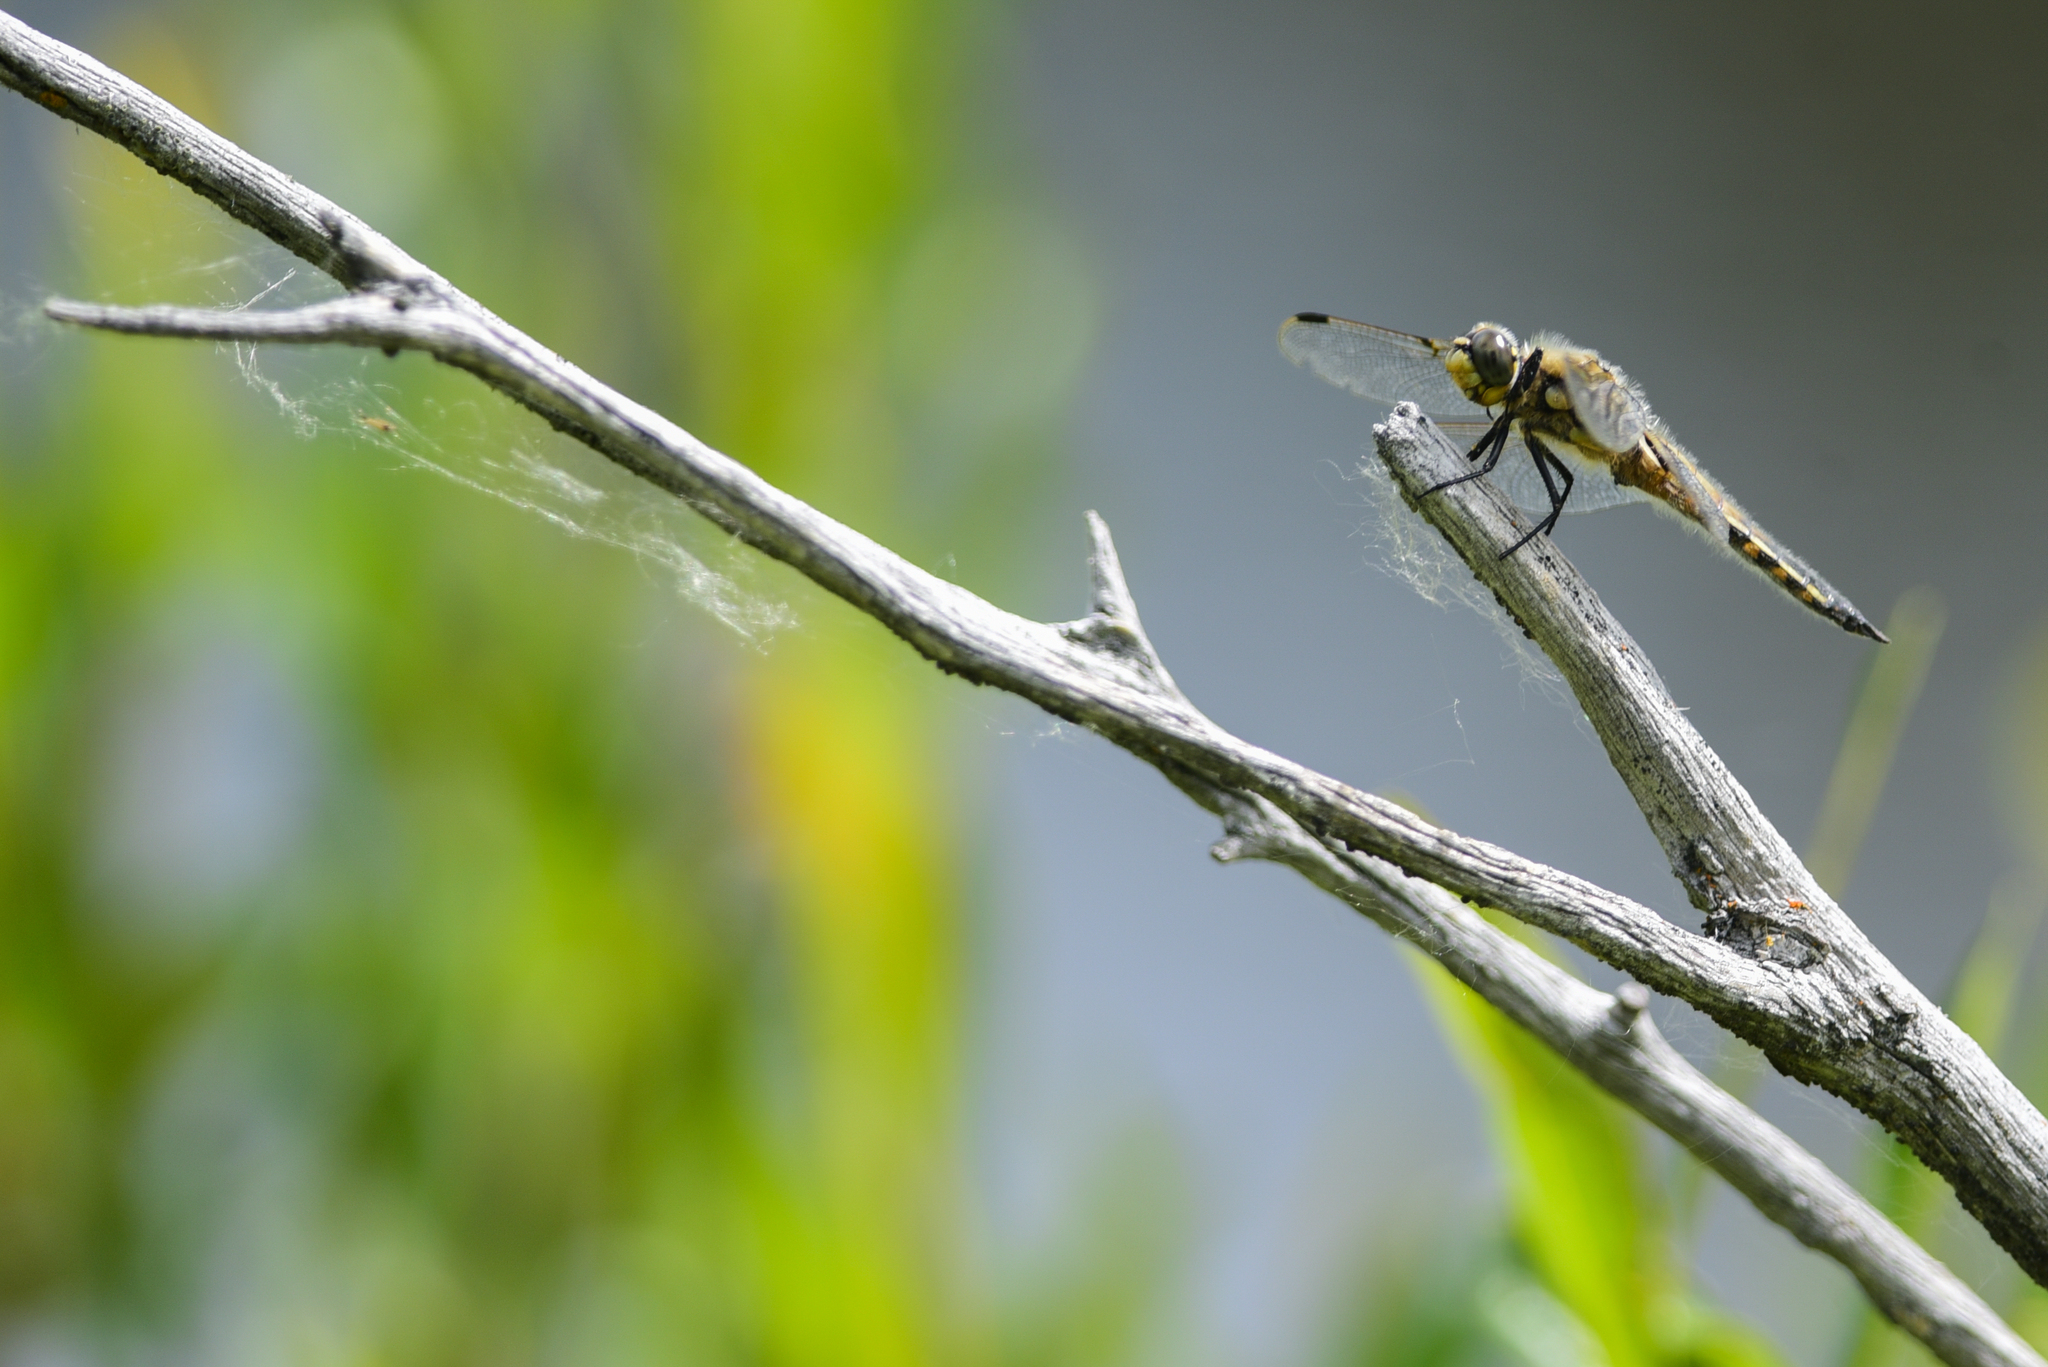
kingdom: Animalia
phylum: Arthropoda
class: Insecta
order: Odonata
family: Libellulidae
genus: Libellula
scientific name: Libellula quadrimaculata
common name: Four-spotted chaser
